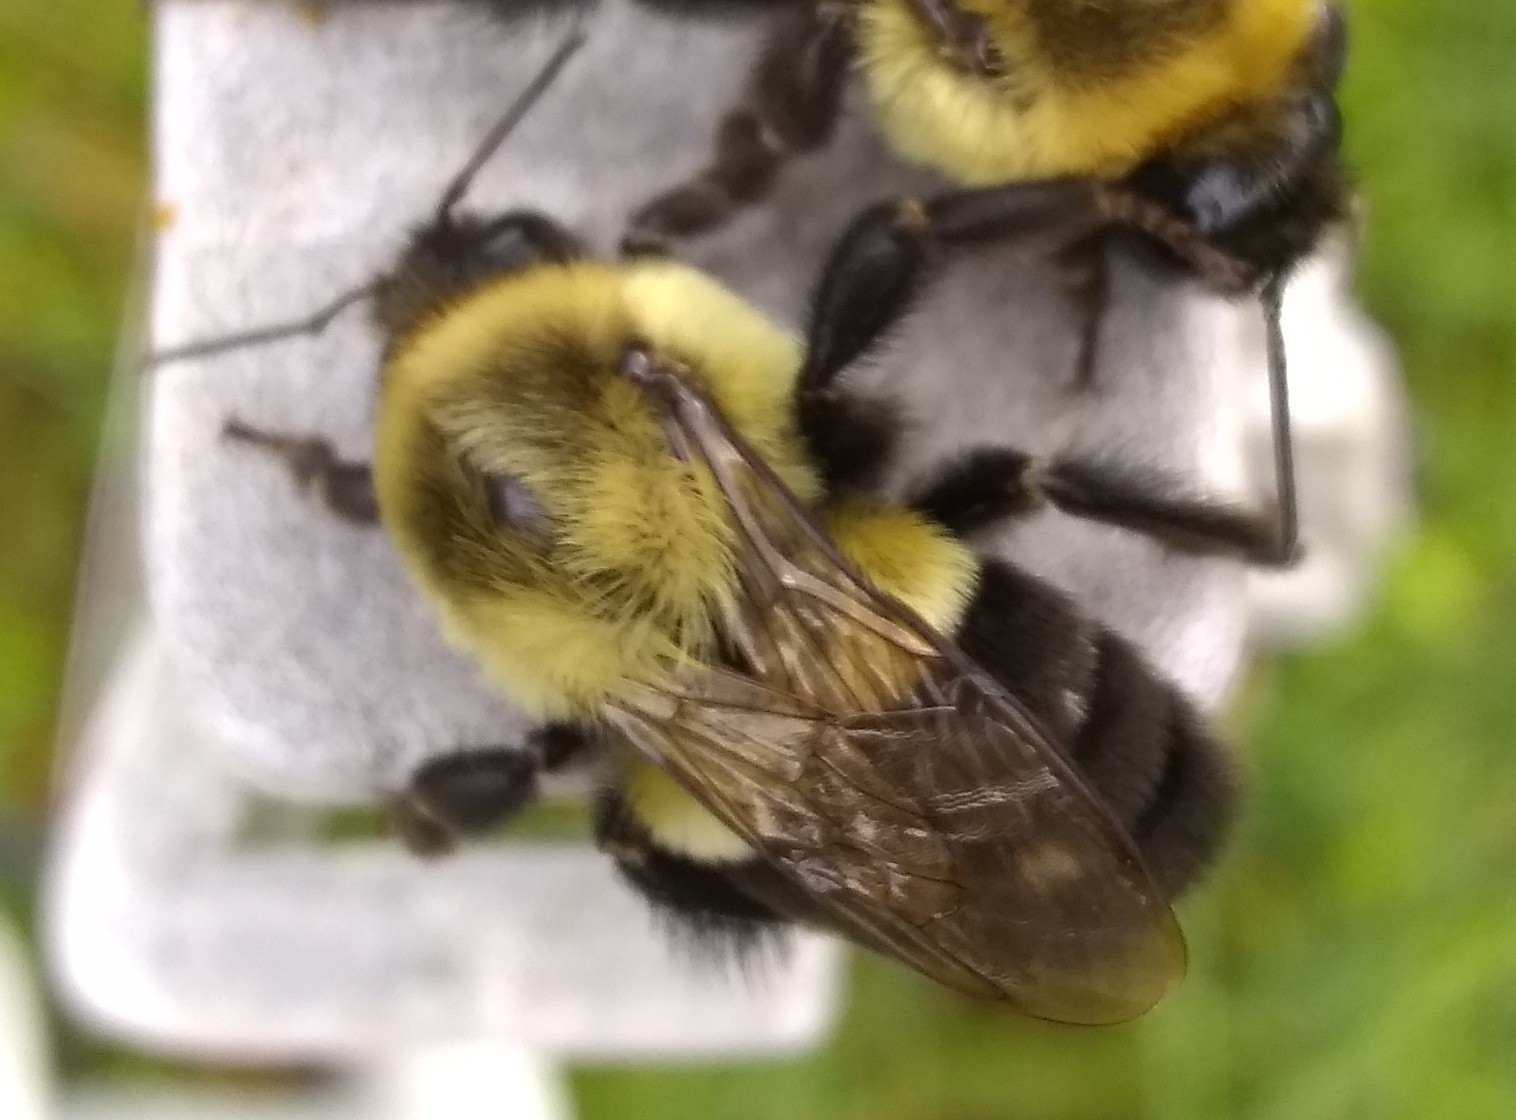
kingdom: Animalia
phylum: Arthropoda
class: Insecta
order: Hymenoptera
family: Apidae
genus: Bombus
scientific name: Bombus impatiens
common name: Common eastern bumble bee
